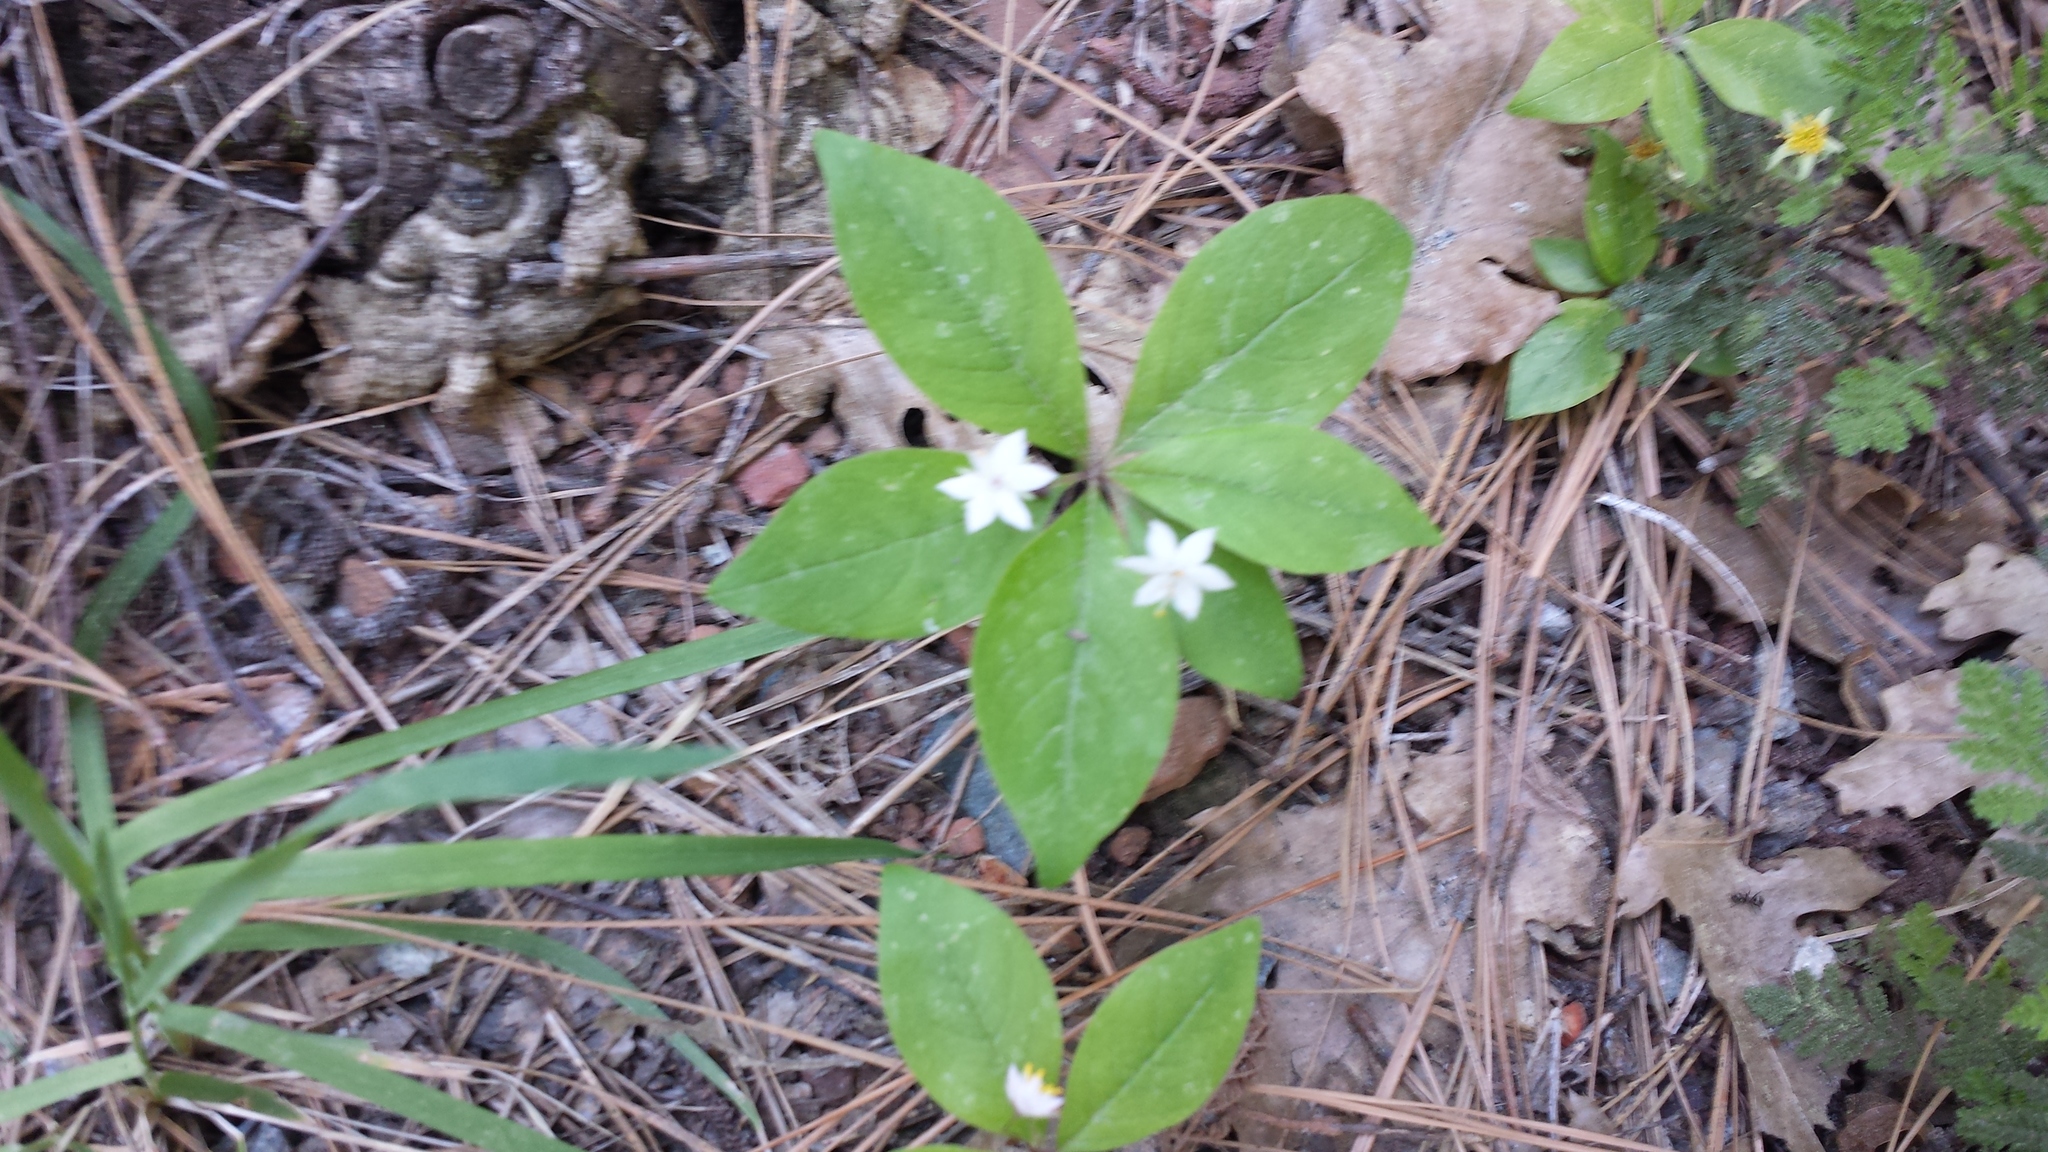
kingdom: Plantae
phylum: Tracheophyta
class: Magnoliopsida
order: Ericales
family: Primulaceae
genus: Lysimachia
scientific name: Lysimachia latifolia
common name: Pacific starflower
